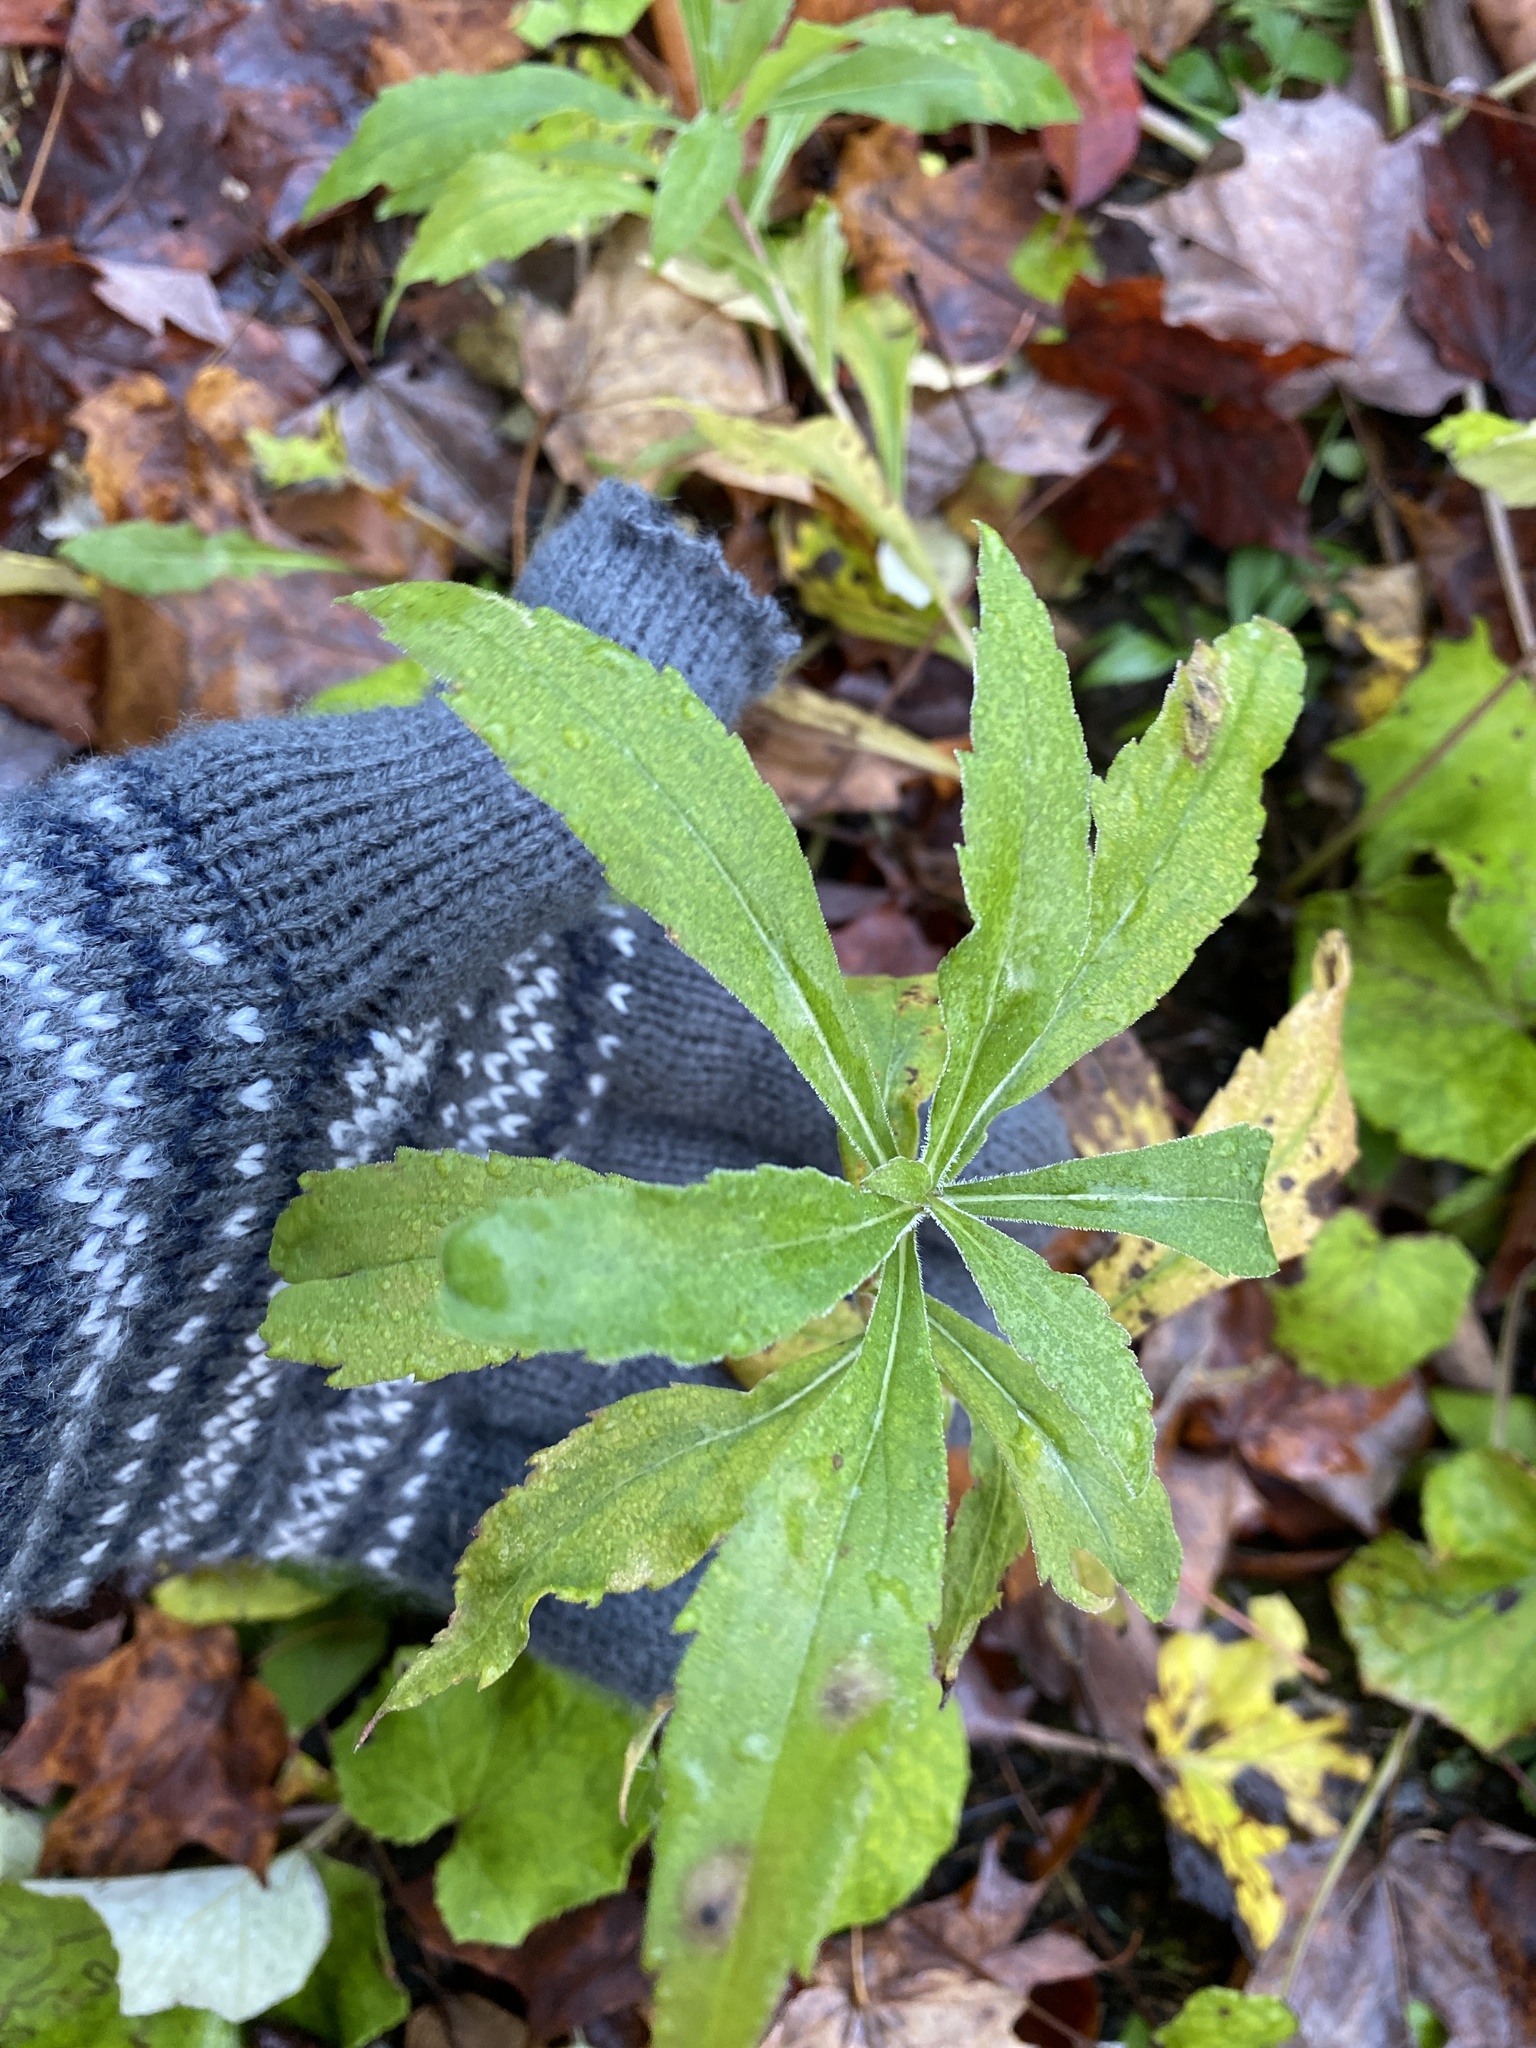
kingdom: Plantae
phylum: Tracheophyta
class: Magnoliopsida
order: Asterales
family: Asteraceae
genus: Oclemena
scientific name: Oclemena acuminata
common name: Mountain aster
